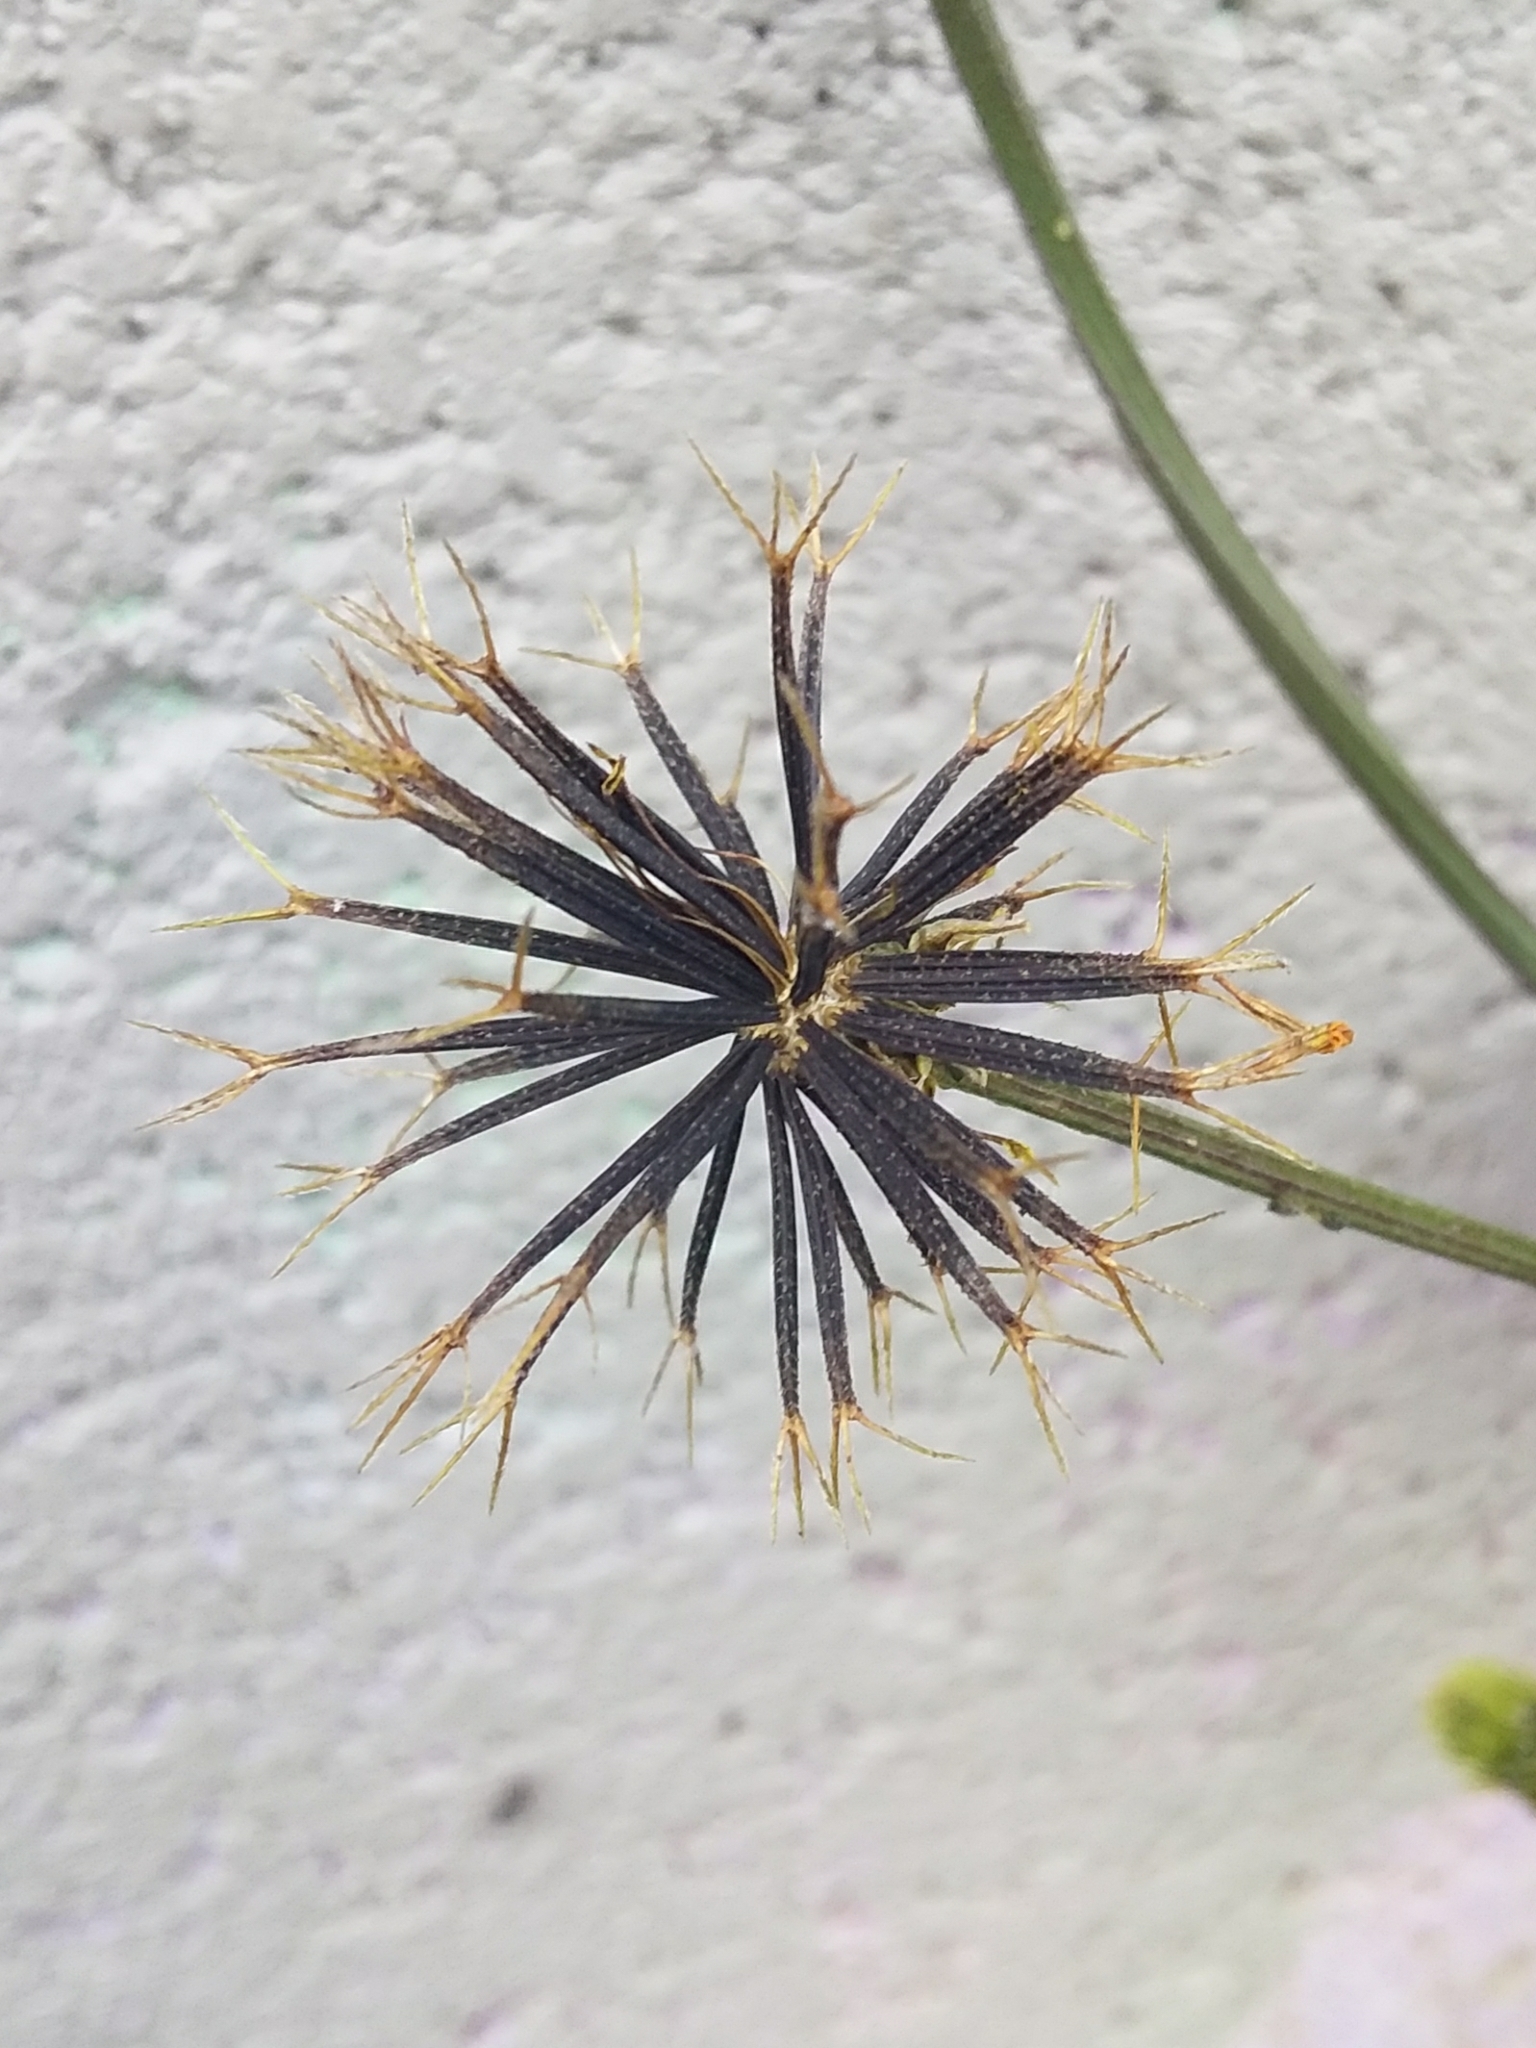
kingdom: Plantae
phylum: Tracheophyta
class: Magnoliopsida
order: Asterales
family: Asteraceae
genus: Bidens
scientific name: Bidens pilosa
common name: Black-jack
